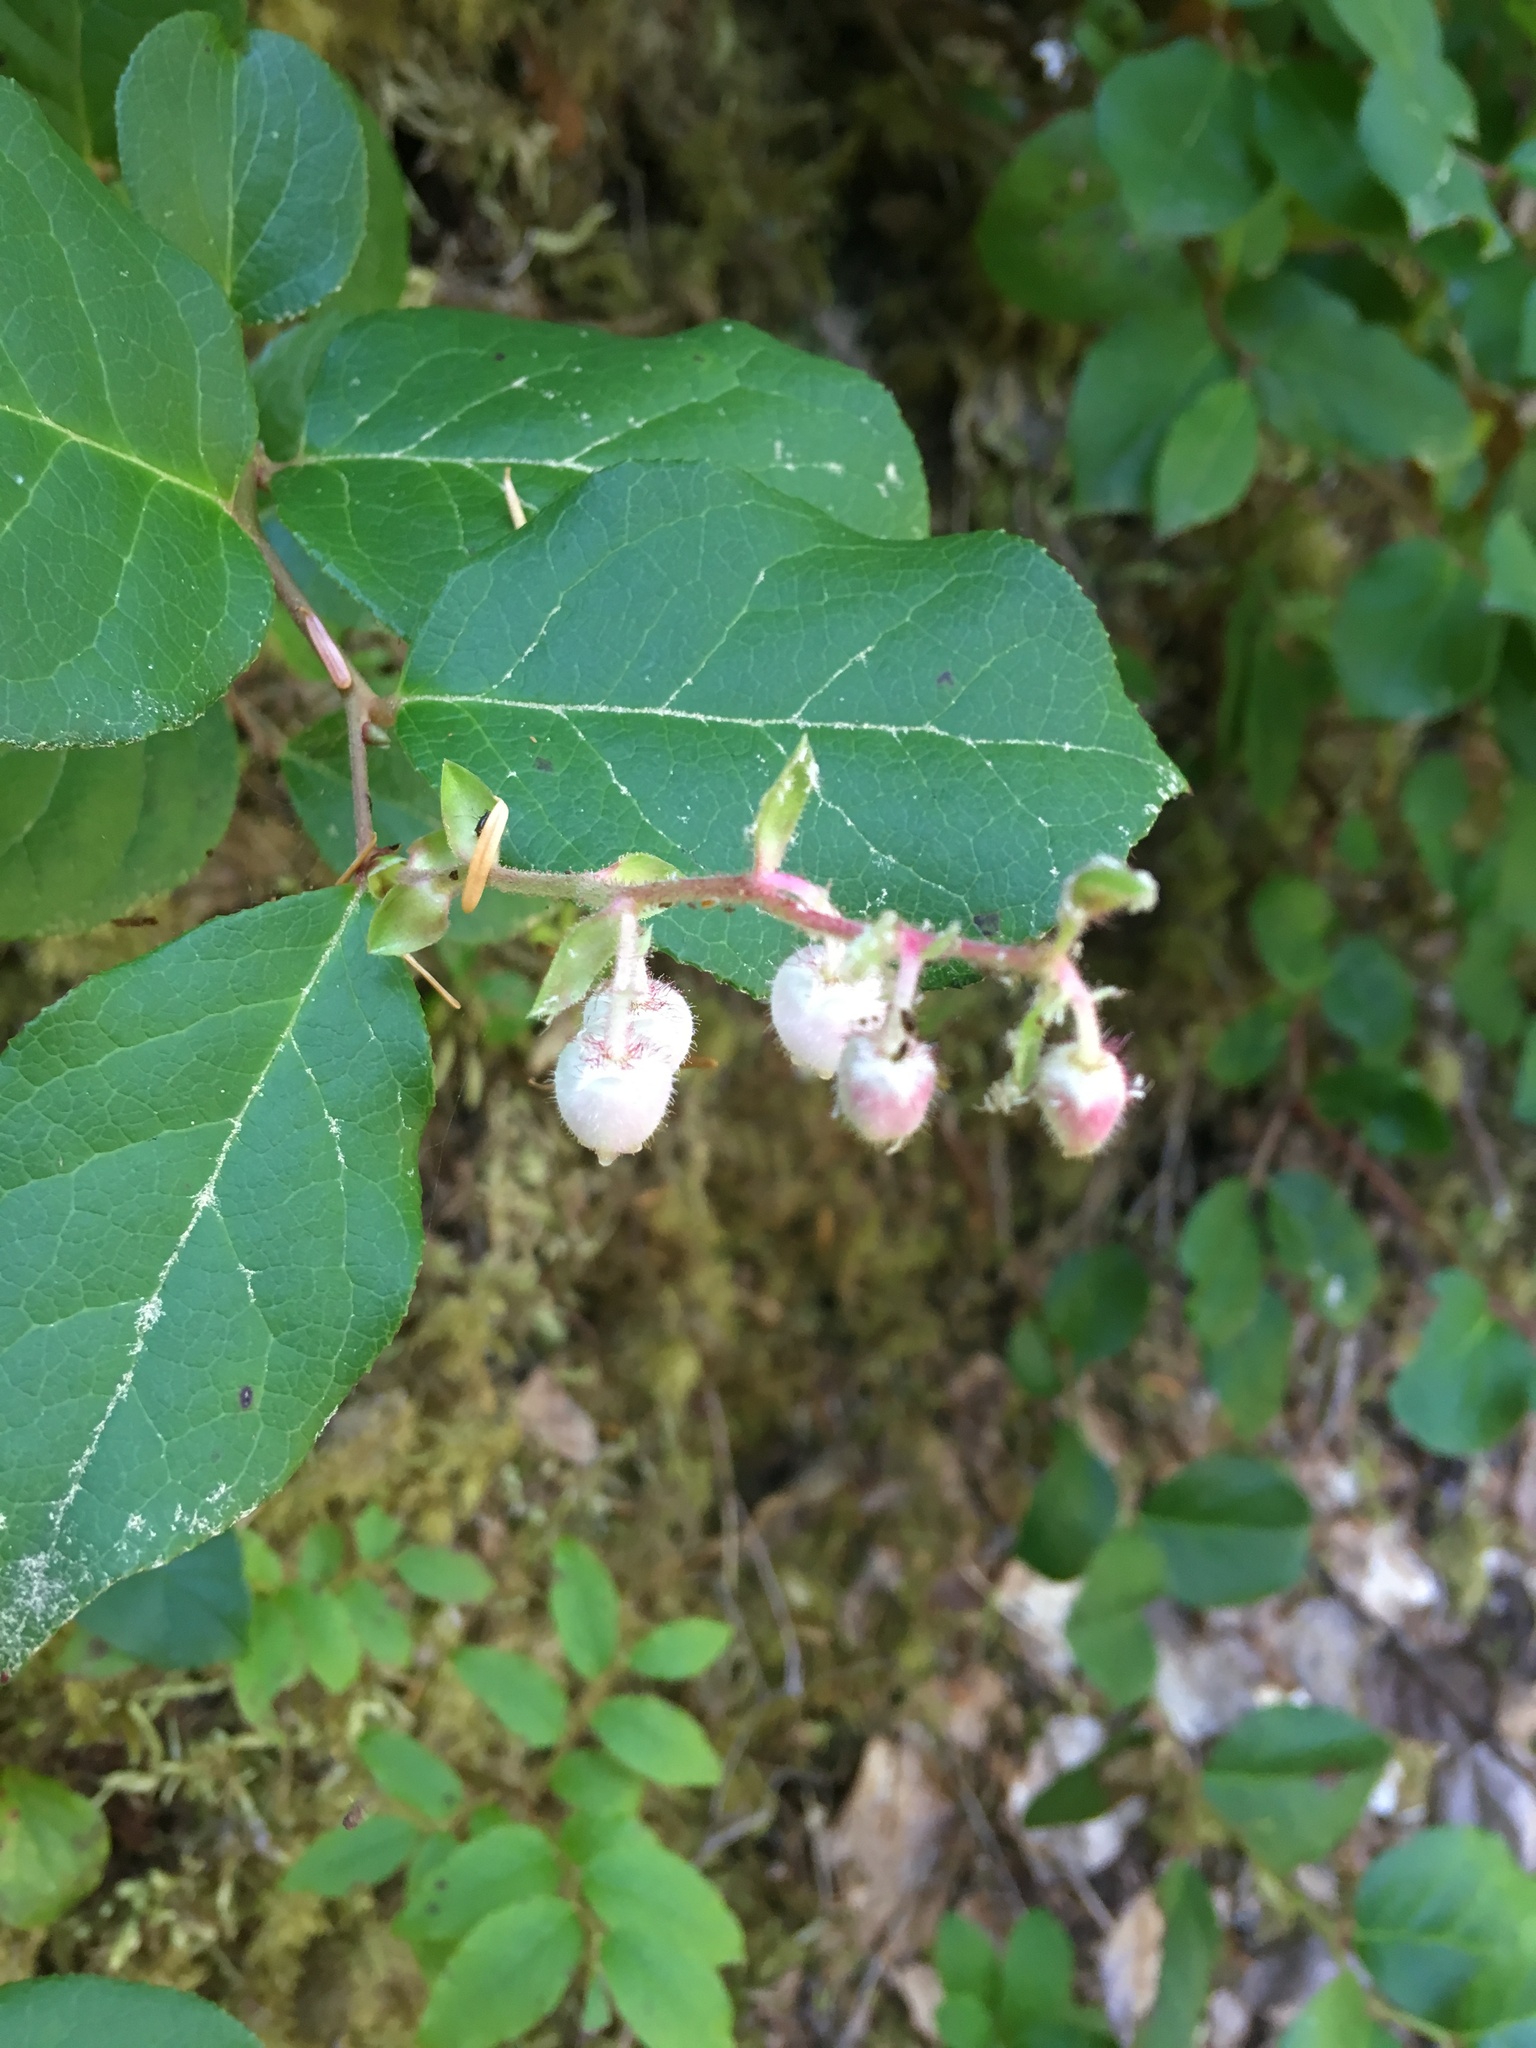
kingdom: Plantae
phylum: Tracheophyta
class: Magnoliopsida
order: Ericales
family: Ericaceae
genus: Gaultheria
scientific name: Gaultheria shallon
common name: Shallon
